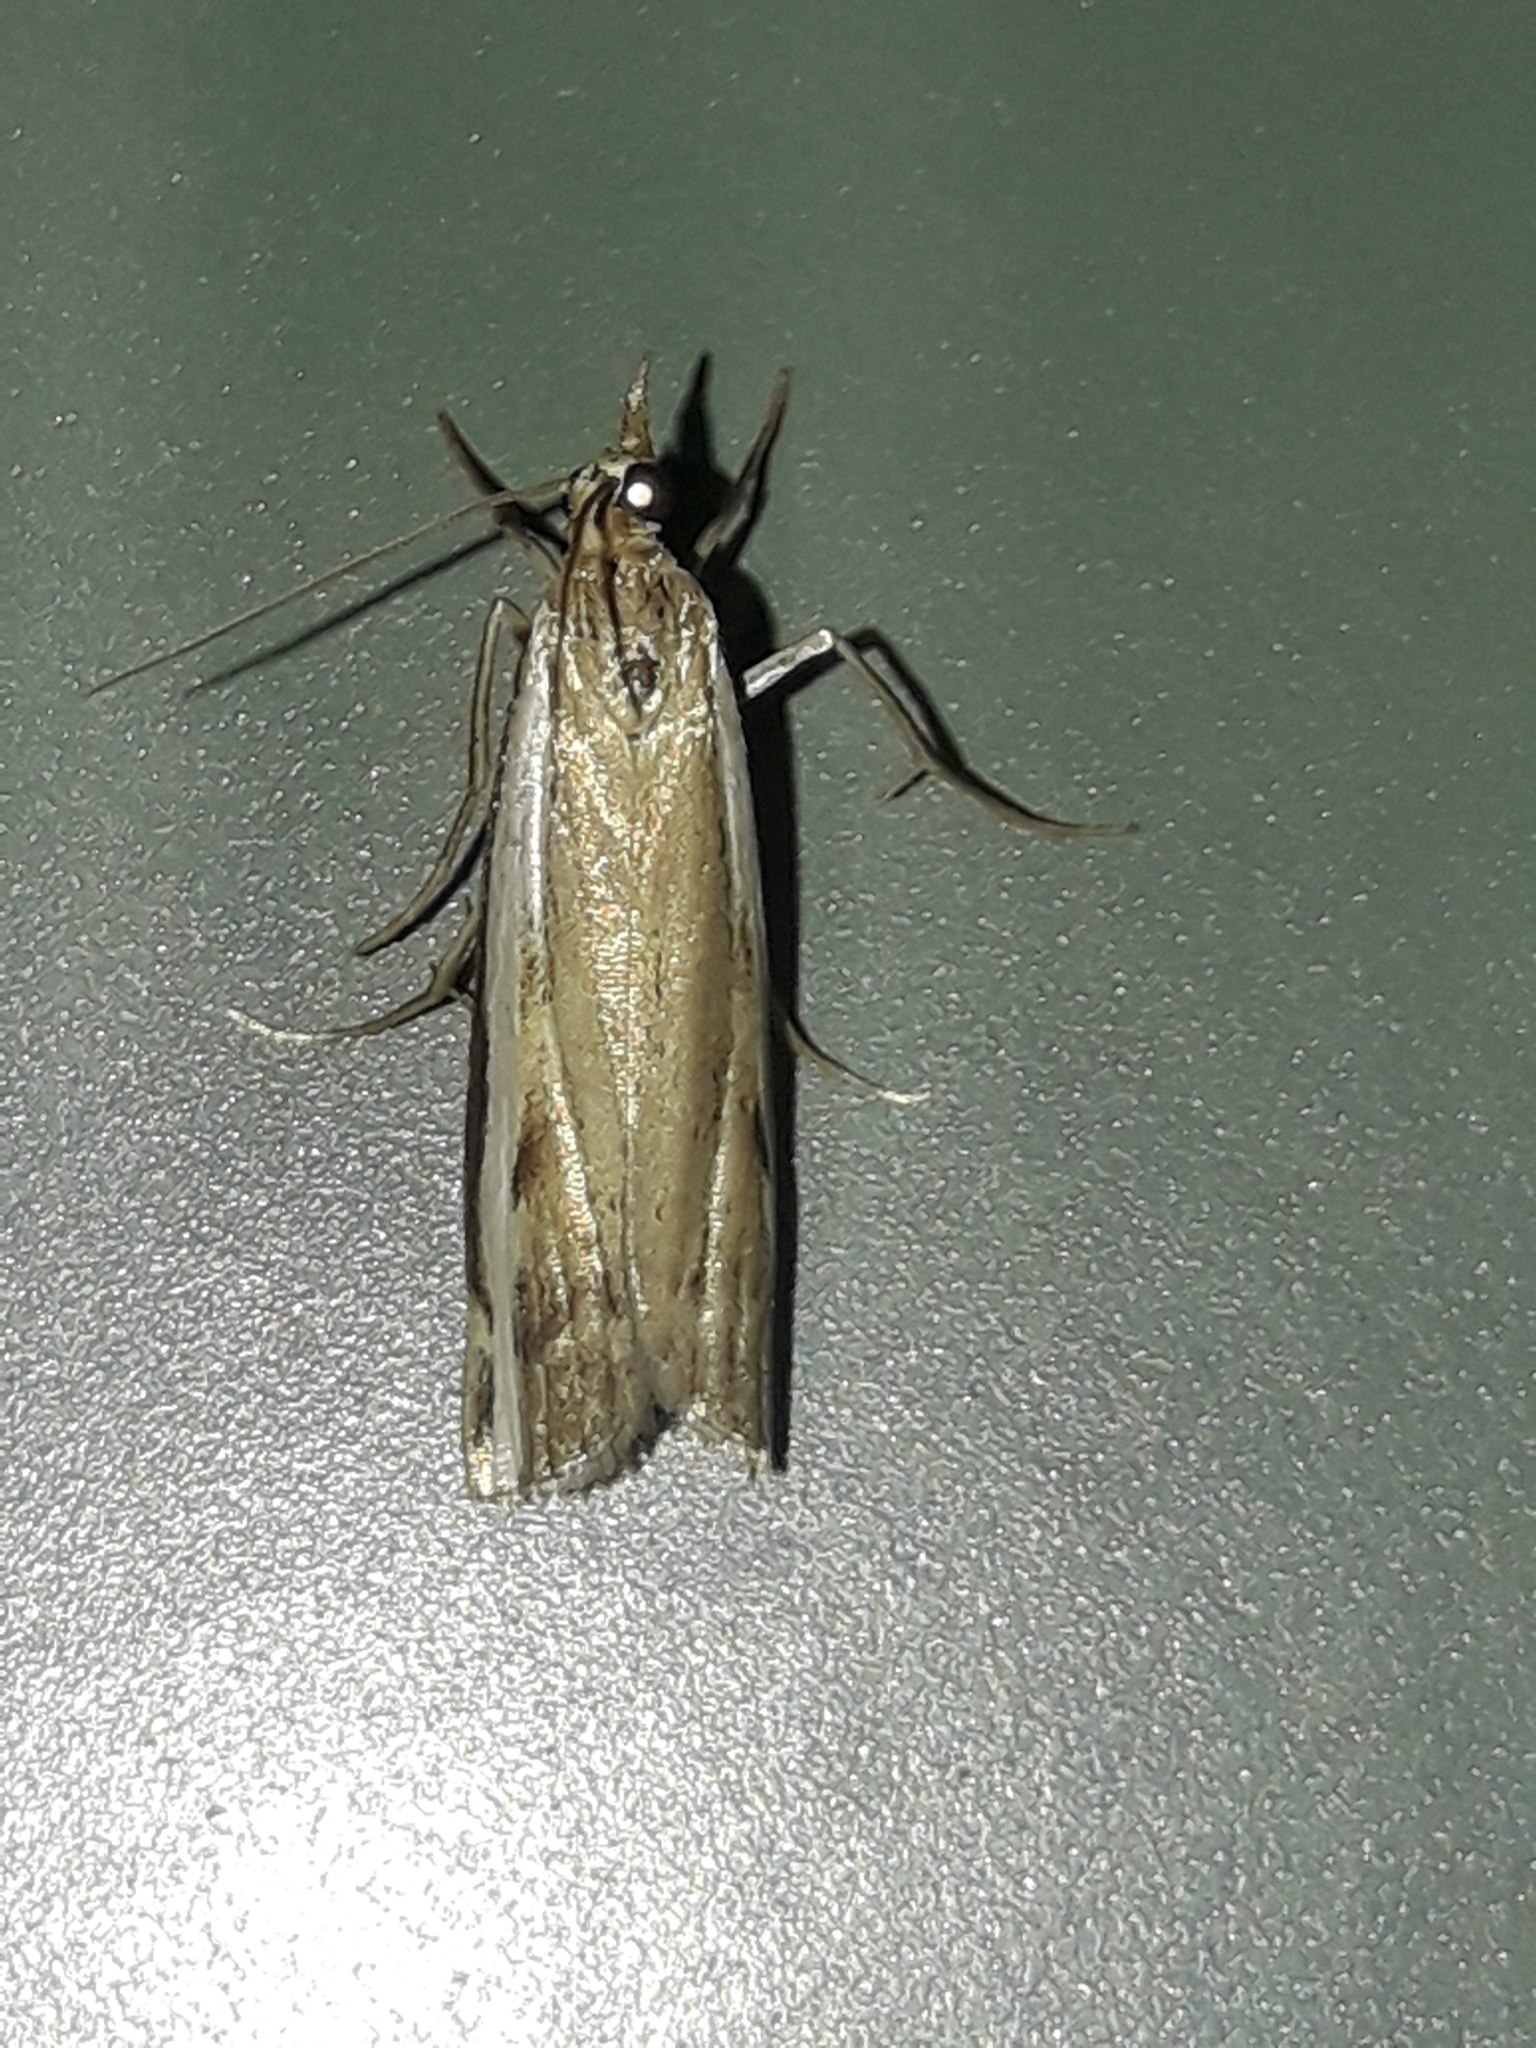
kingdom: Animalia
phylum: Arthropoda
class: Insecta
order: Lepidoptera
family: Crambidae
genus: Orocrambus
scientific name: Orocrambus flexuosellus
